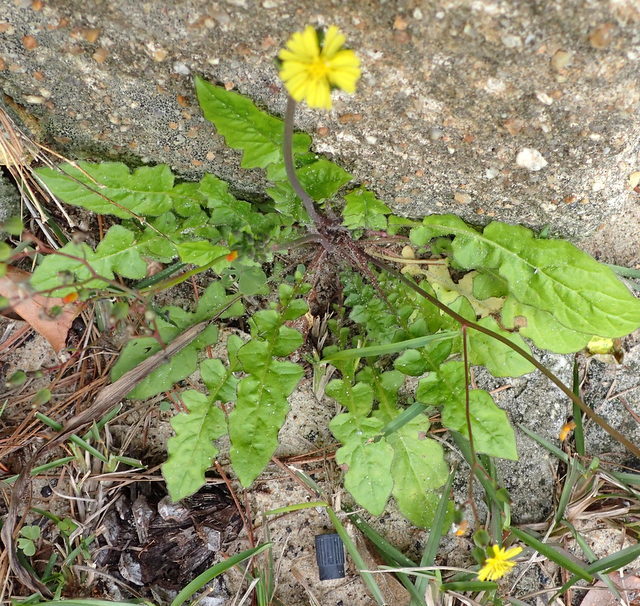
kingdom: Plantae
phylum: Tracheophyta
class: Magnoliopsida
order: Asterales
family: Asteraceae
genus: Youngia
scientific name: Youngia japonica
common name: Oriental false hawksbeard
